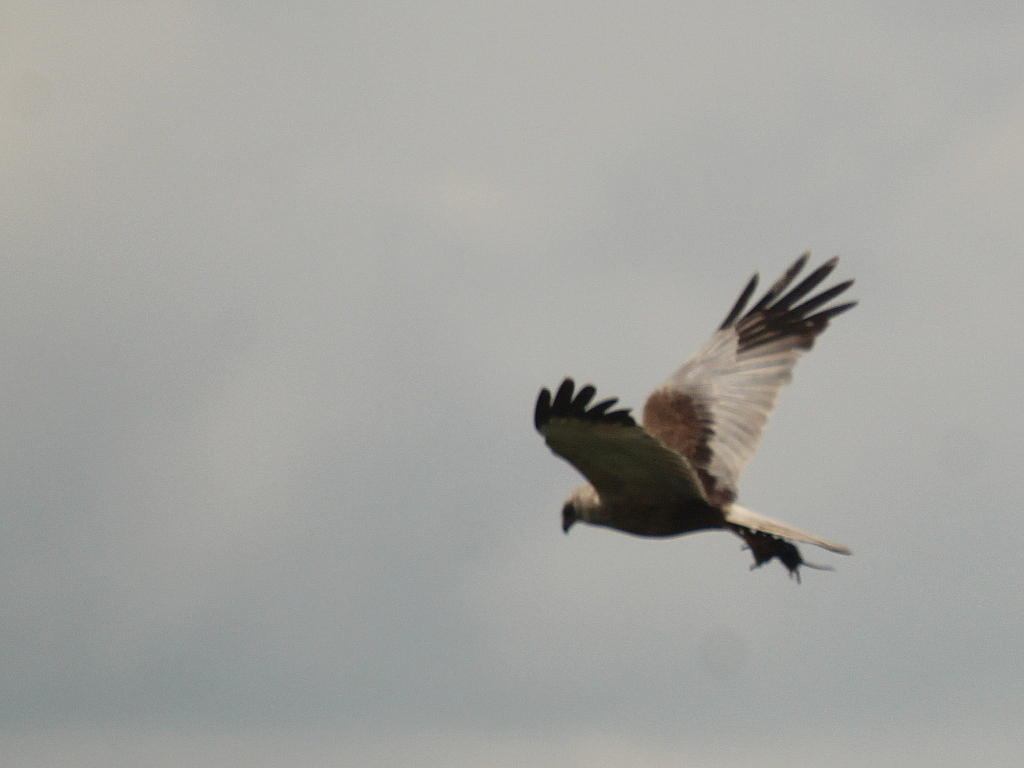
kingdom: Animalia
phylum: Chordata
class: Aves
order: Accipitriformes
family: Accipitridae
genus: Circus
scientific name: Circus aeruginosus
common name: Western marsh harrier
